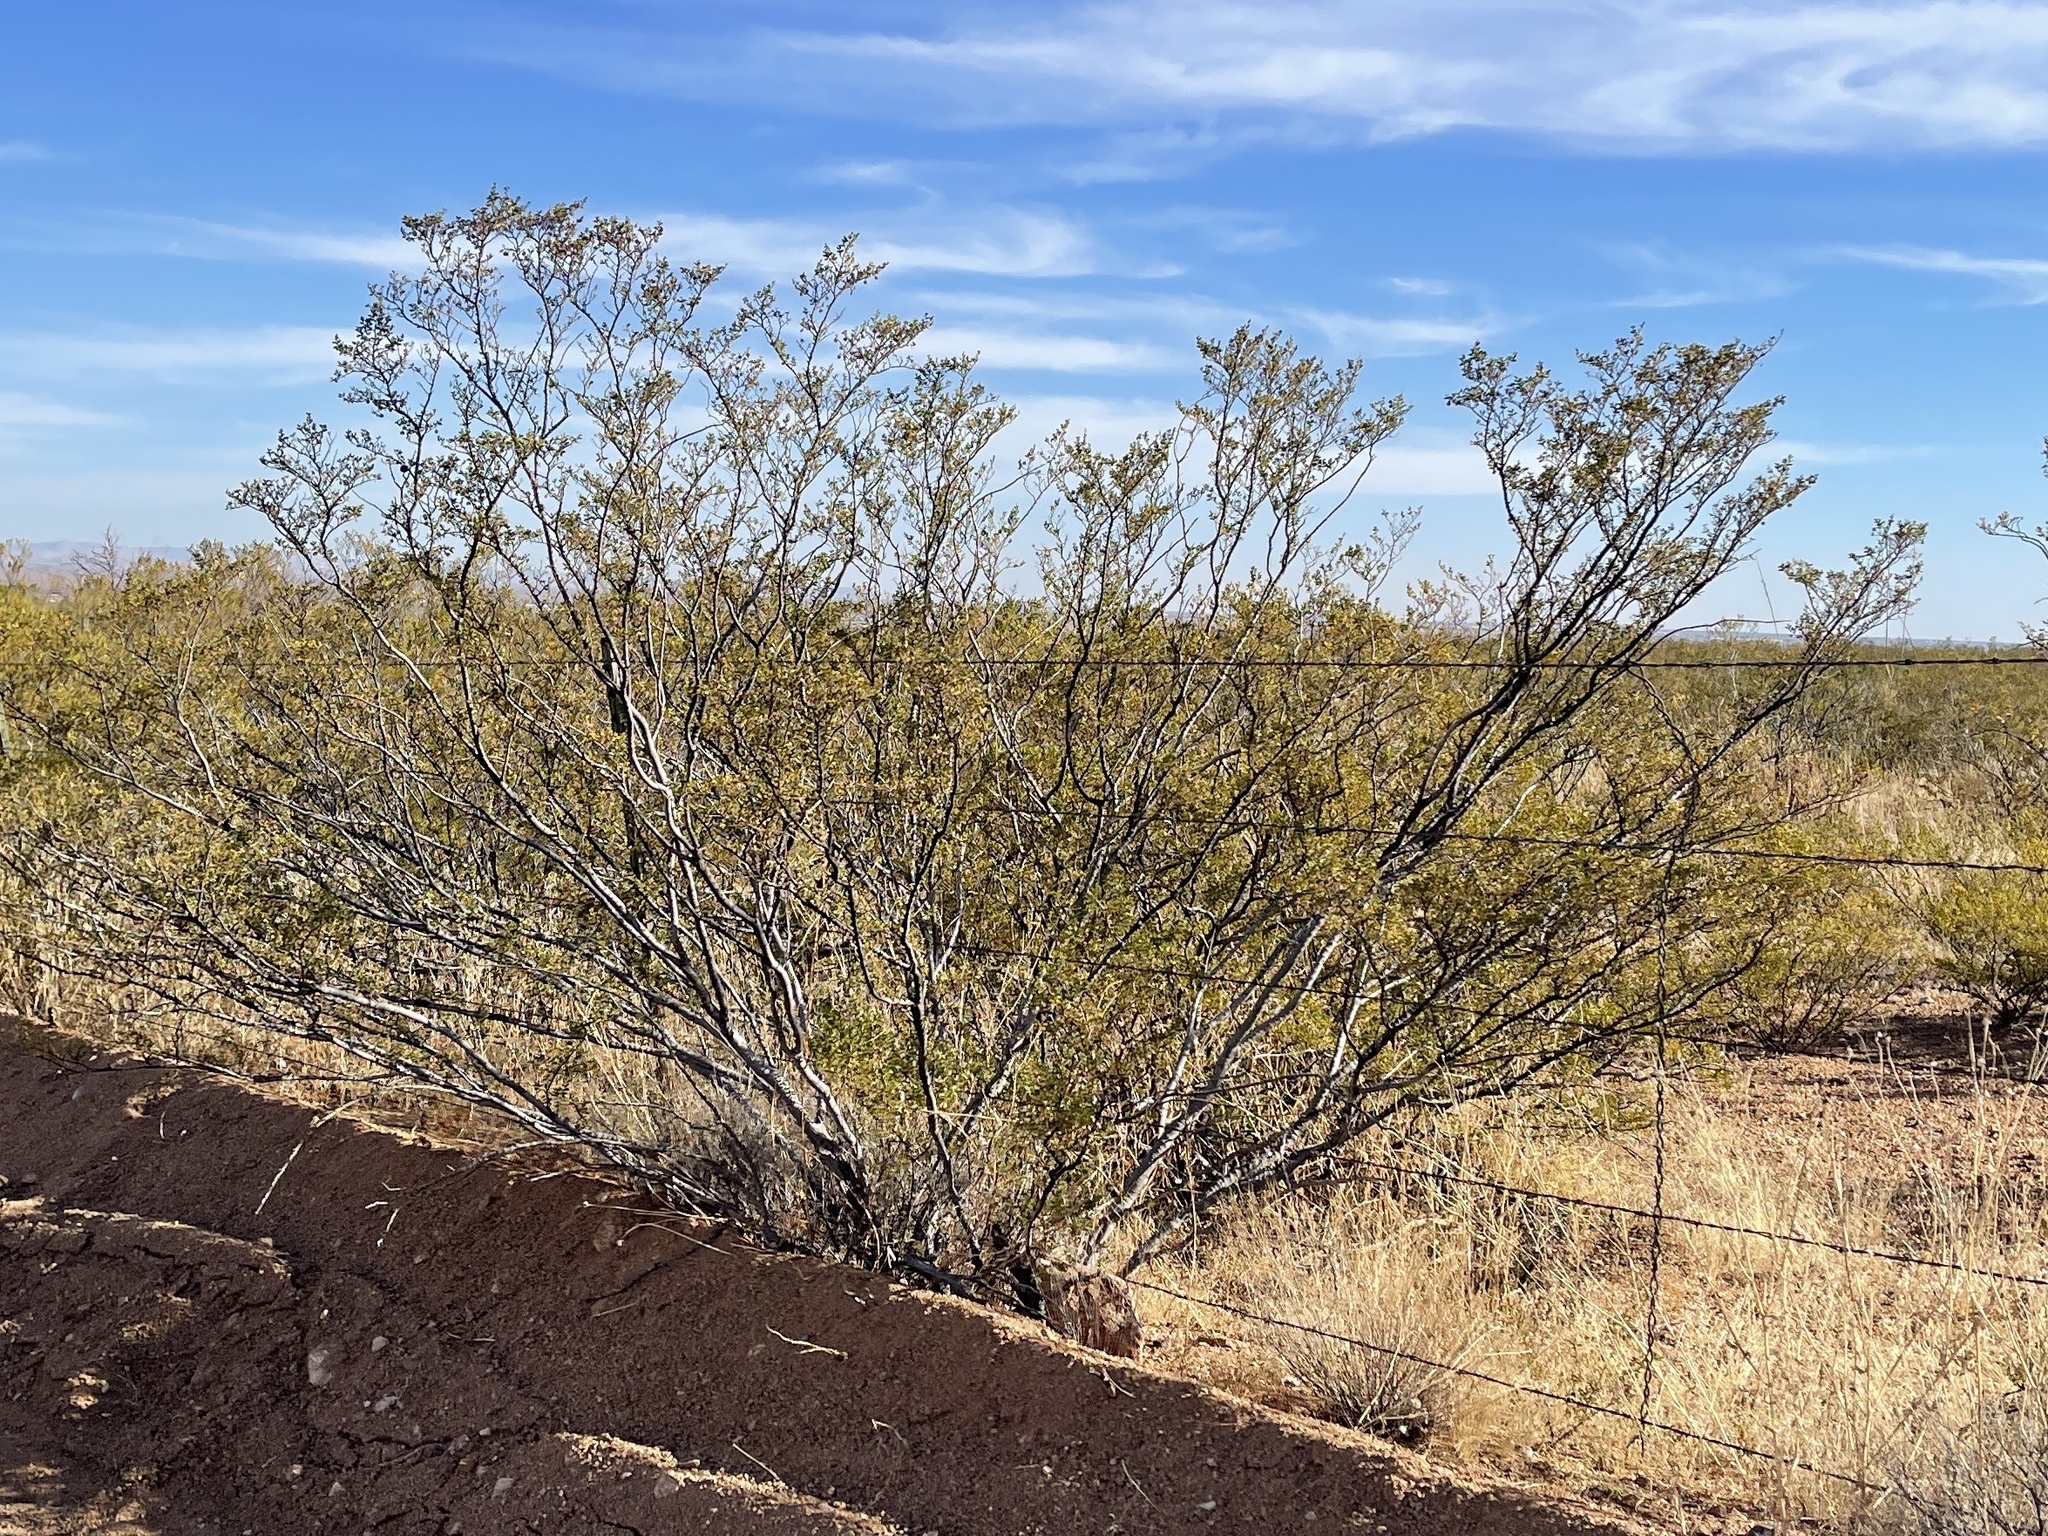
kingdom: Plantae
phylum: Tracheophyta
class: Magnoliopsida
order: Zygophyllales
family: Zygophyllaceae
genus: Larrea
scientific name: Larrea tridentata
